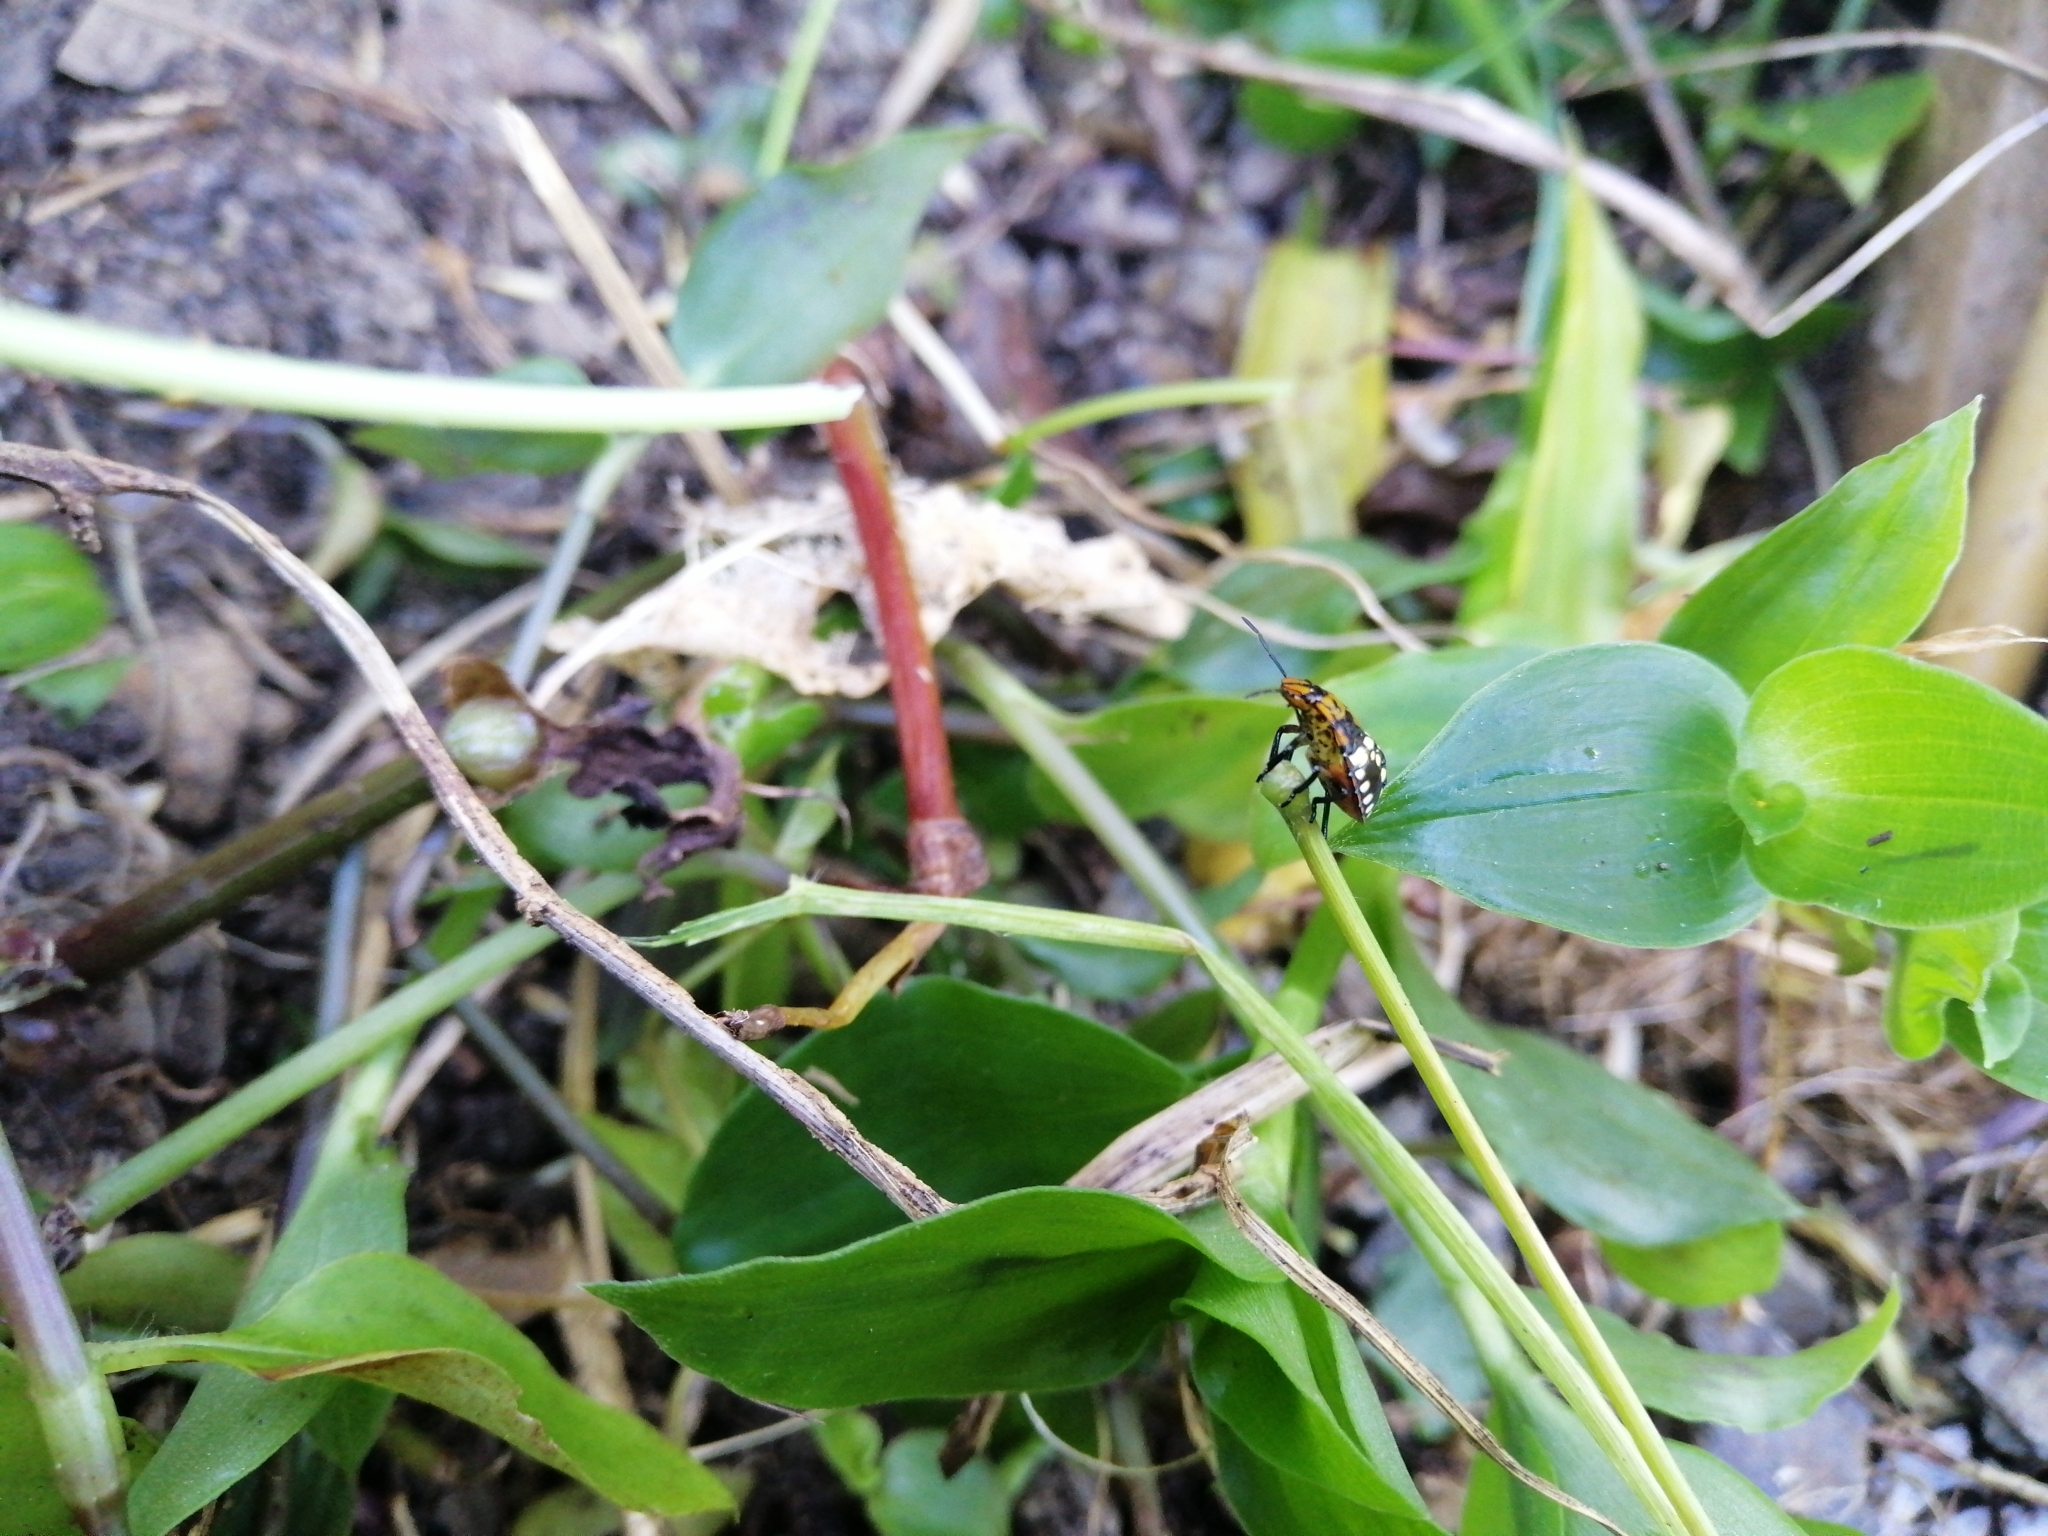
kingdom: Animalia
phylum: Arthropoda
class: Insecta
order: Hemiptera
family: Pentatomidae
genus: Nezara
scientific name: Nezara viridula
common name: Southern green stink bug
